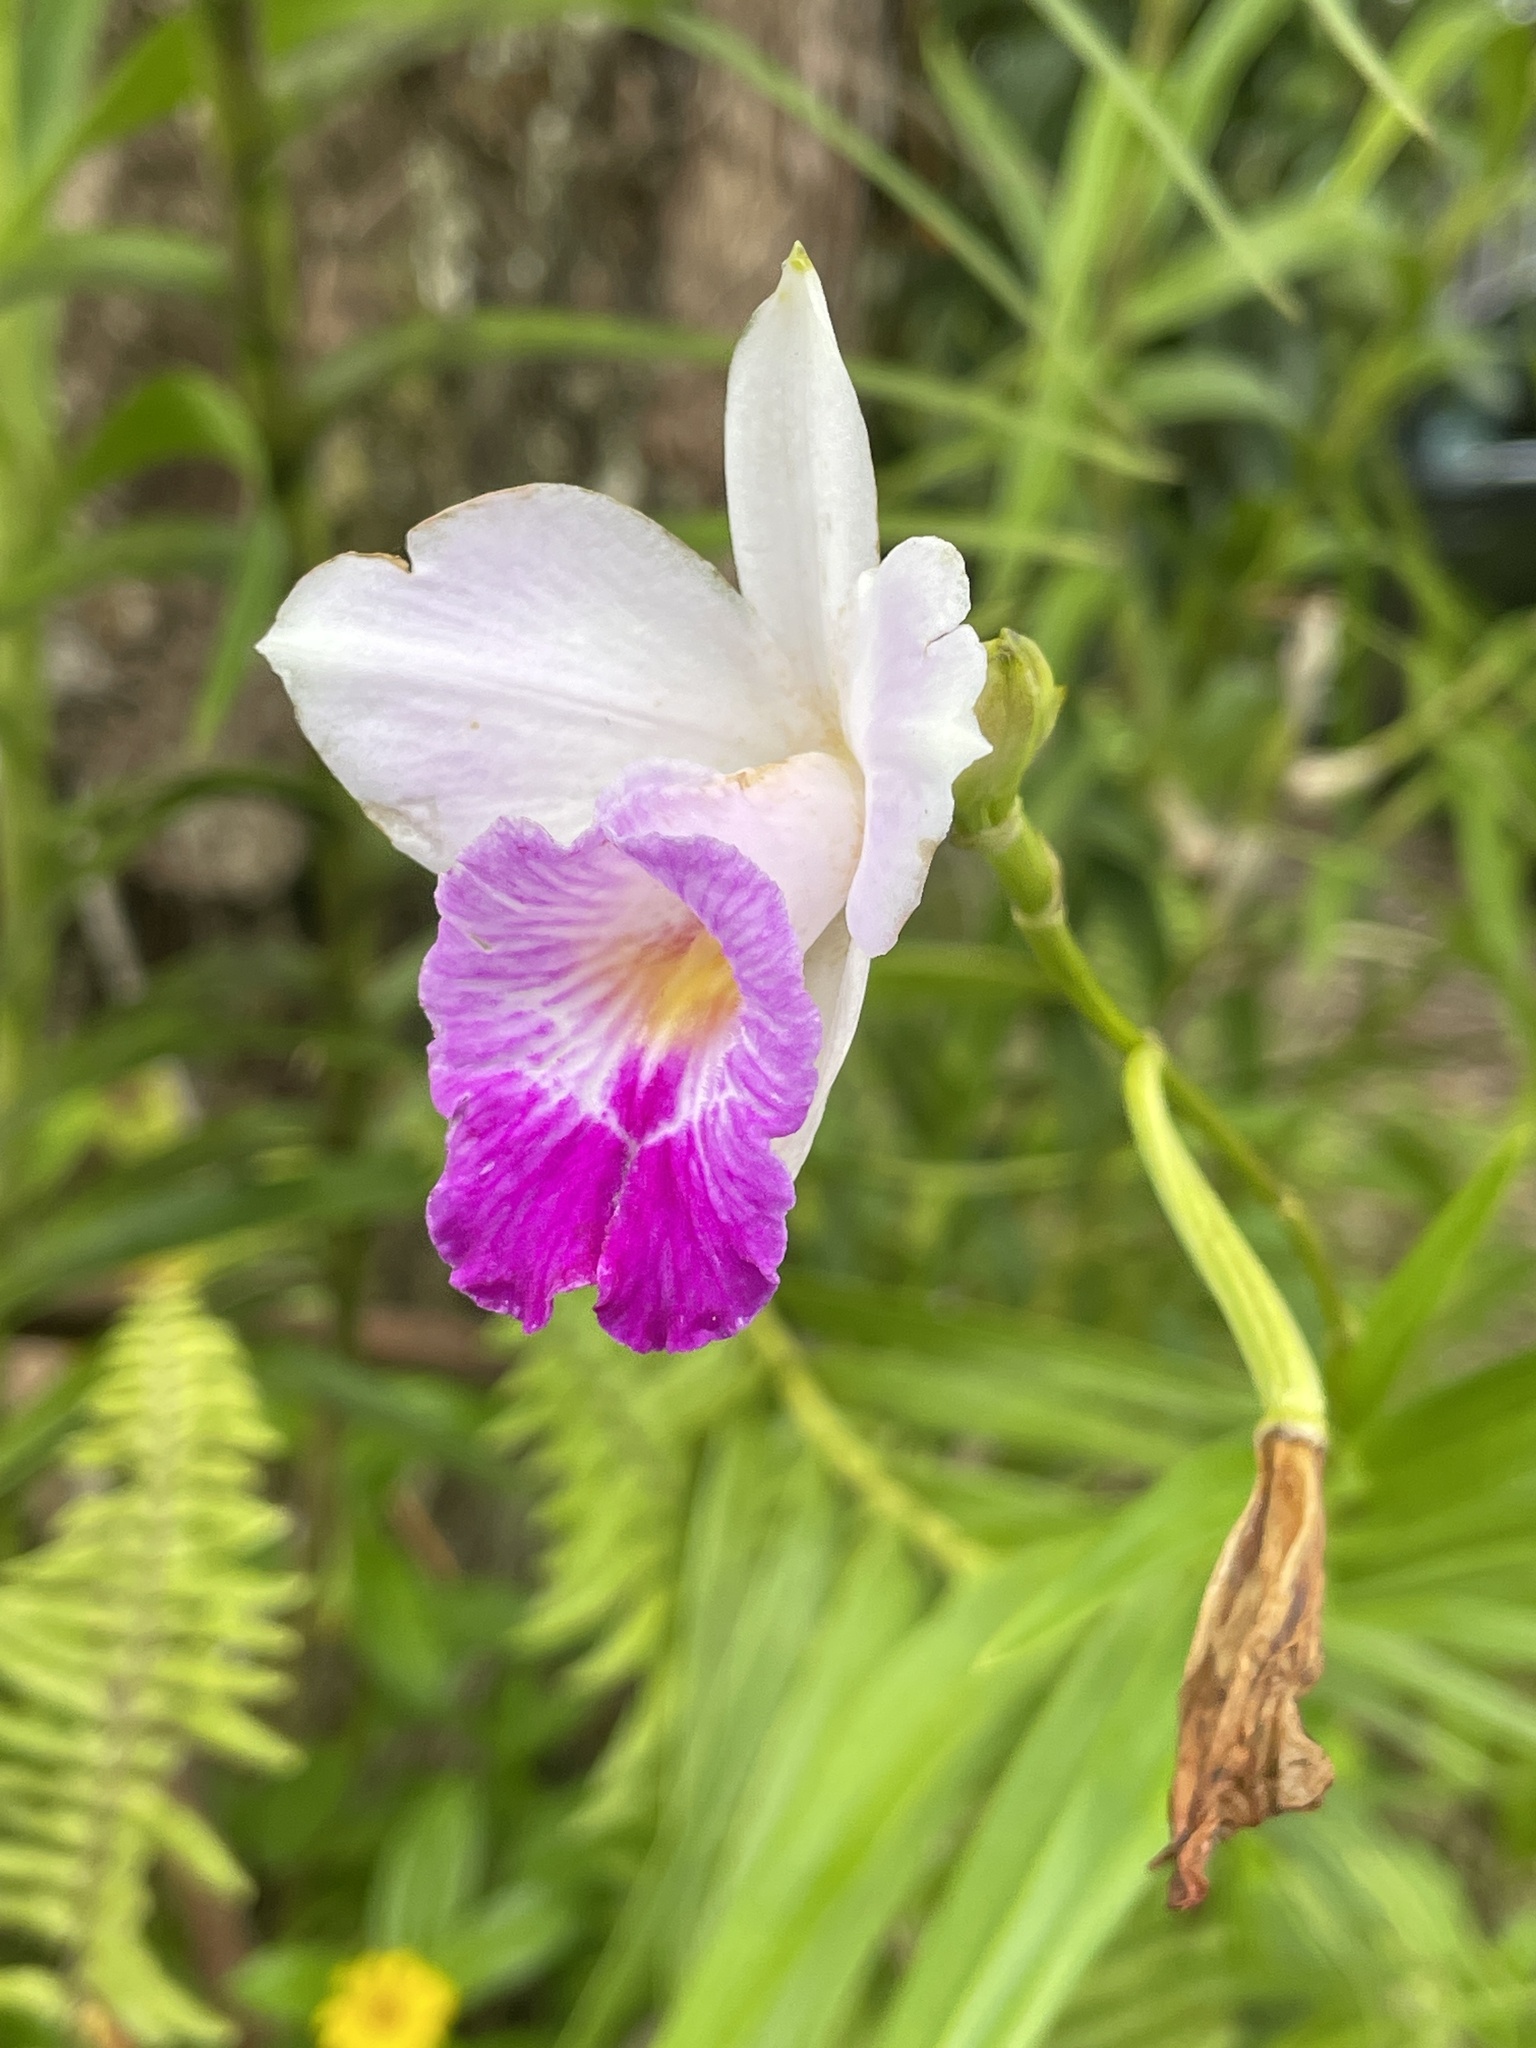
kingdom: Plantae
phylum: Tracheophyta
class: Liliopsida
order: Asparagales
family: Orchidaceae
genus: Arundina
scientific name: Arundina graminifolia
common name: Bamboo orchid
